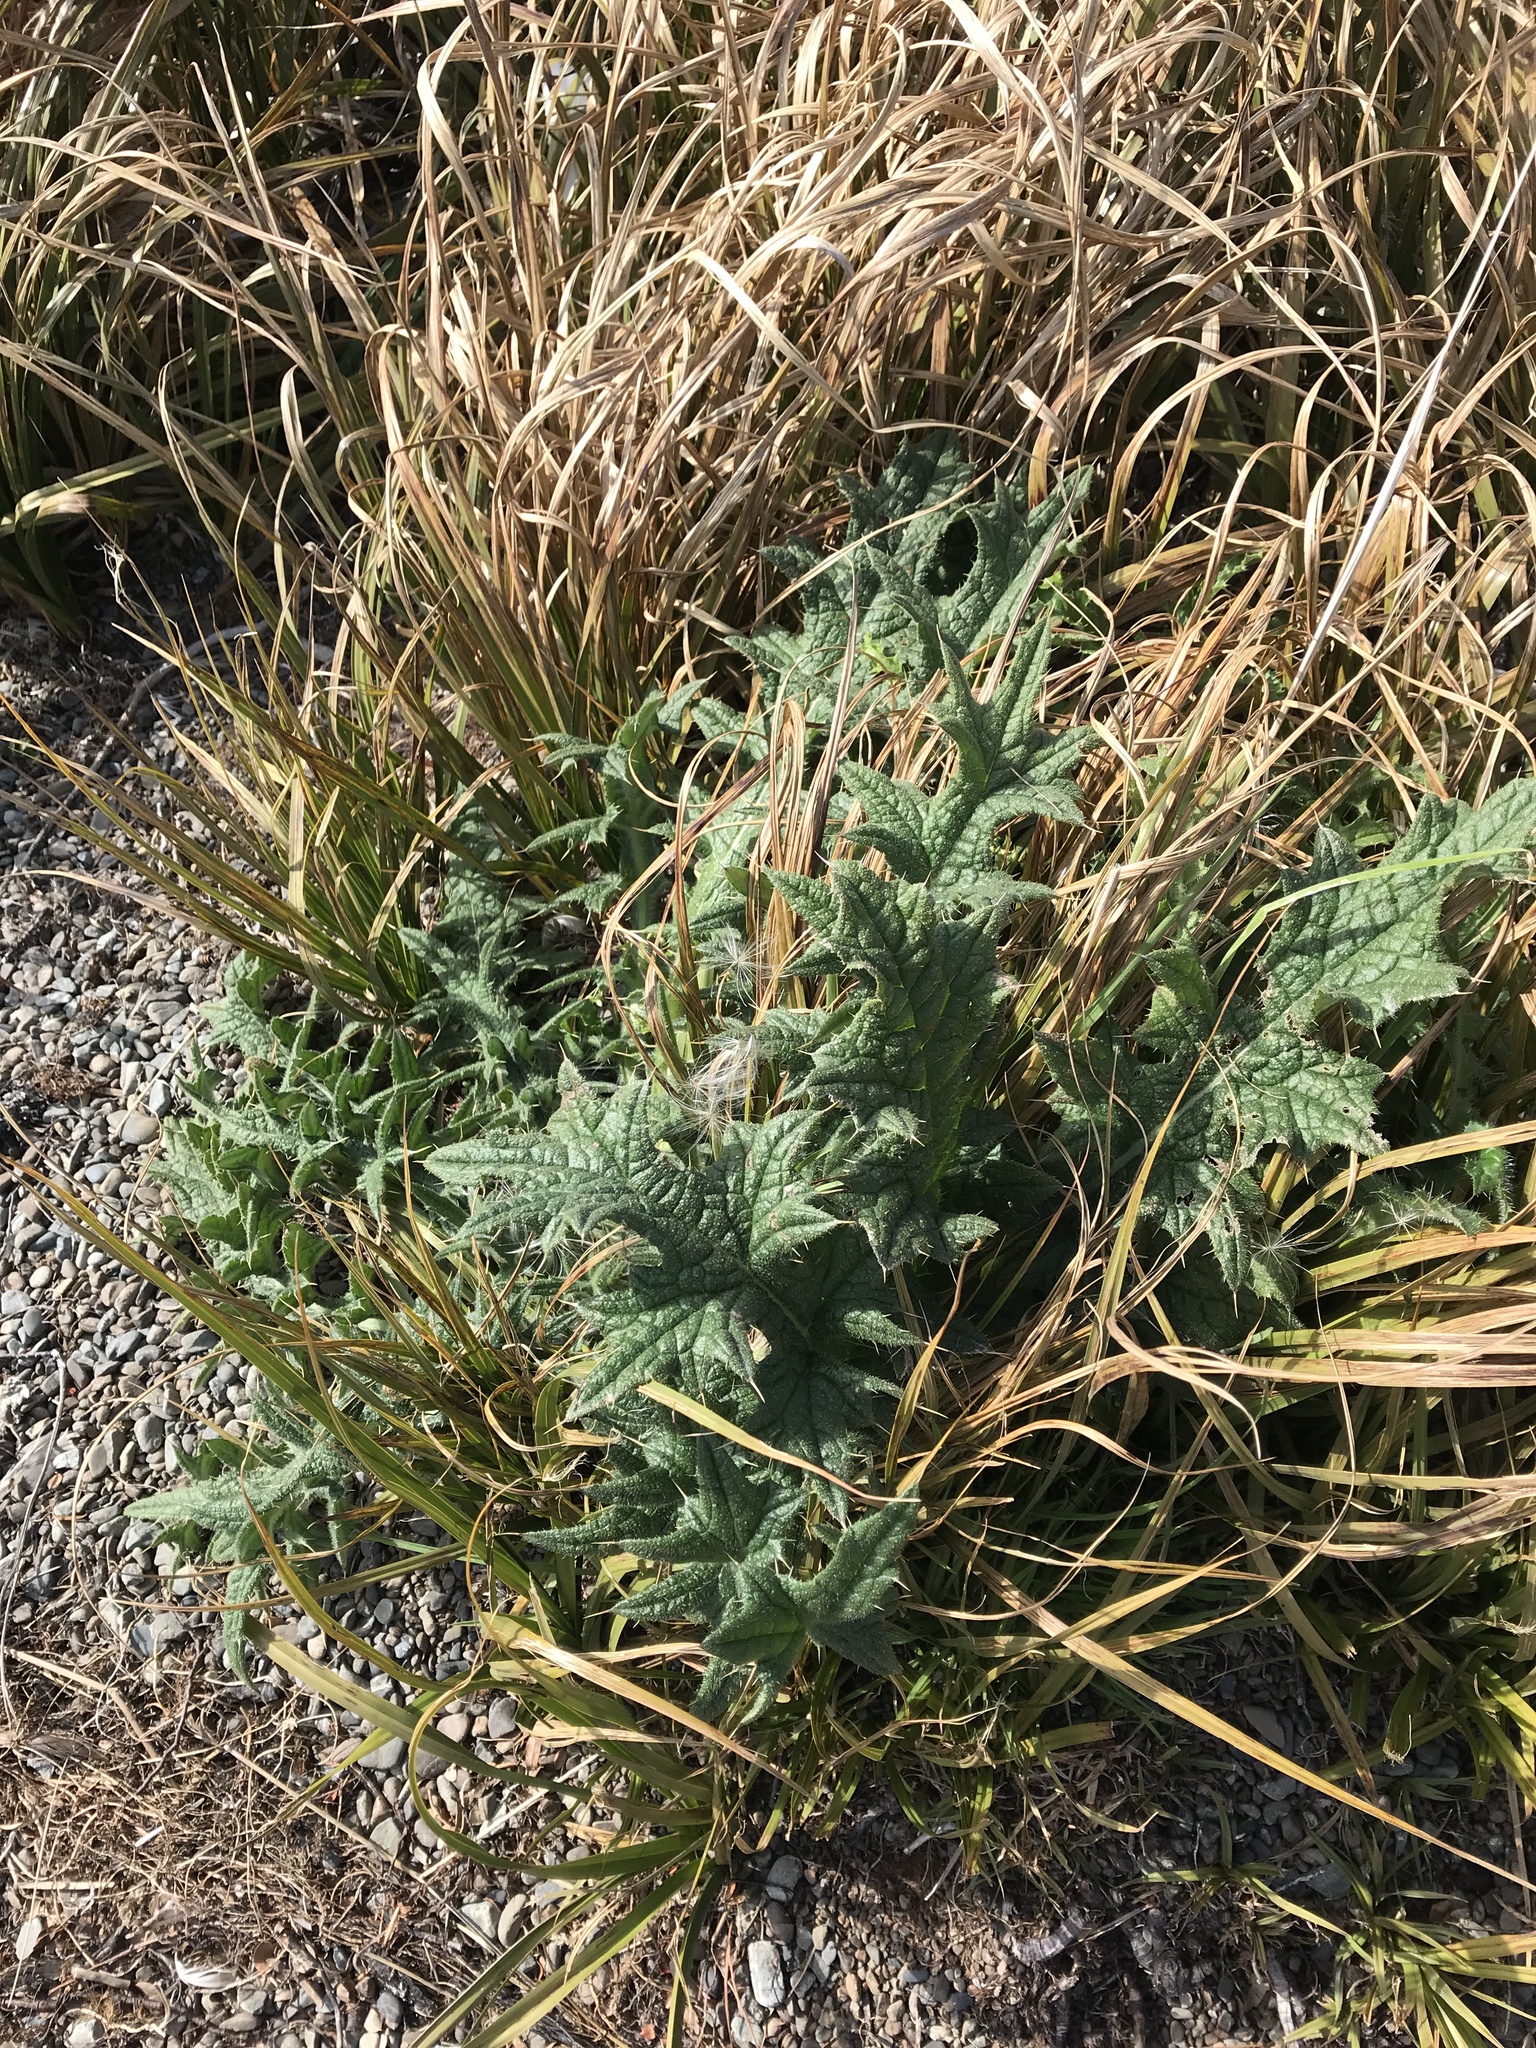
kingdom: Plantae
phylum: Tracheophyta
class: Magnoliopsida
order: Asterales
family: Asteraceae
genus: Cirsium
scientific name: Cirsium vulgare
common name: Bull thistle
